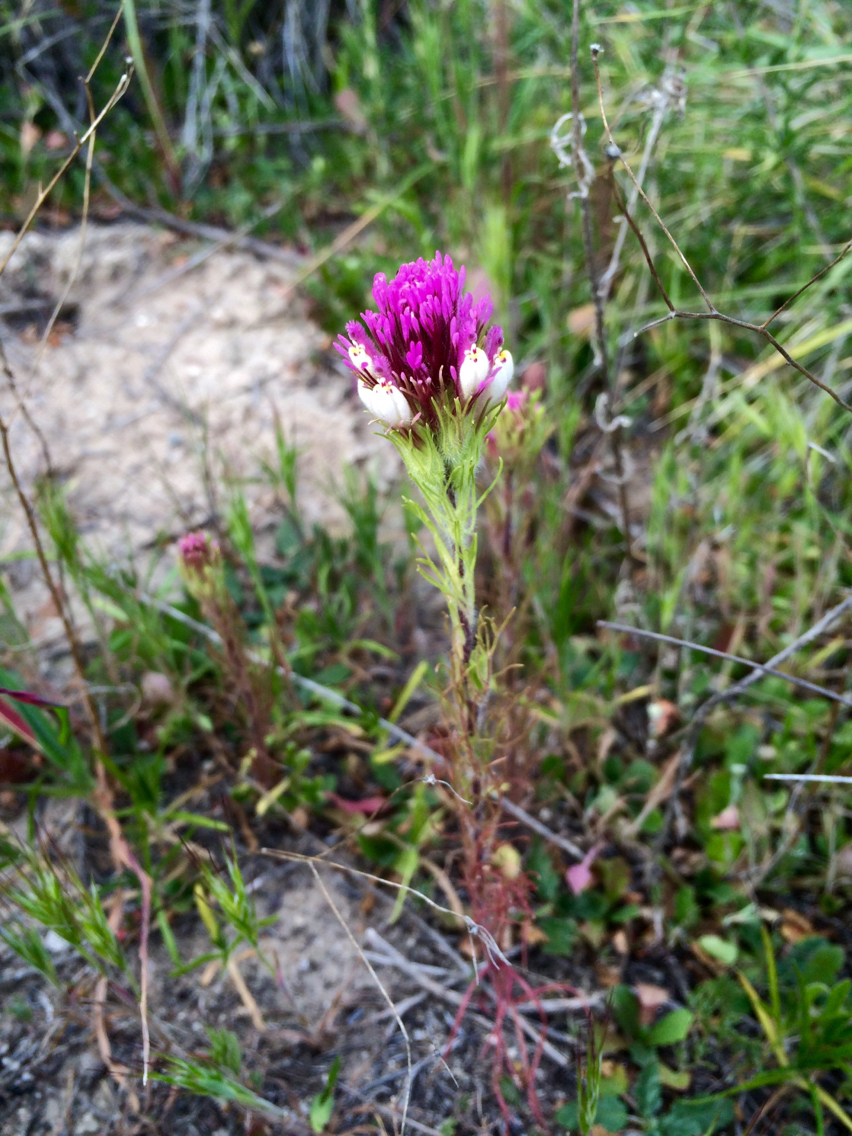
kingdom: Plantae
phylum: Tracheophyta
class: Magnoliopsida
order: Lamiales
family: Orobanchaceae
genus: Castilleja
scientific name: Castilleja exserta
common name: Purple owl-clover
